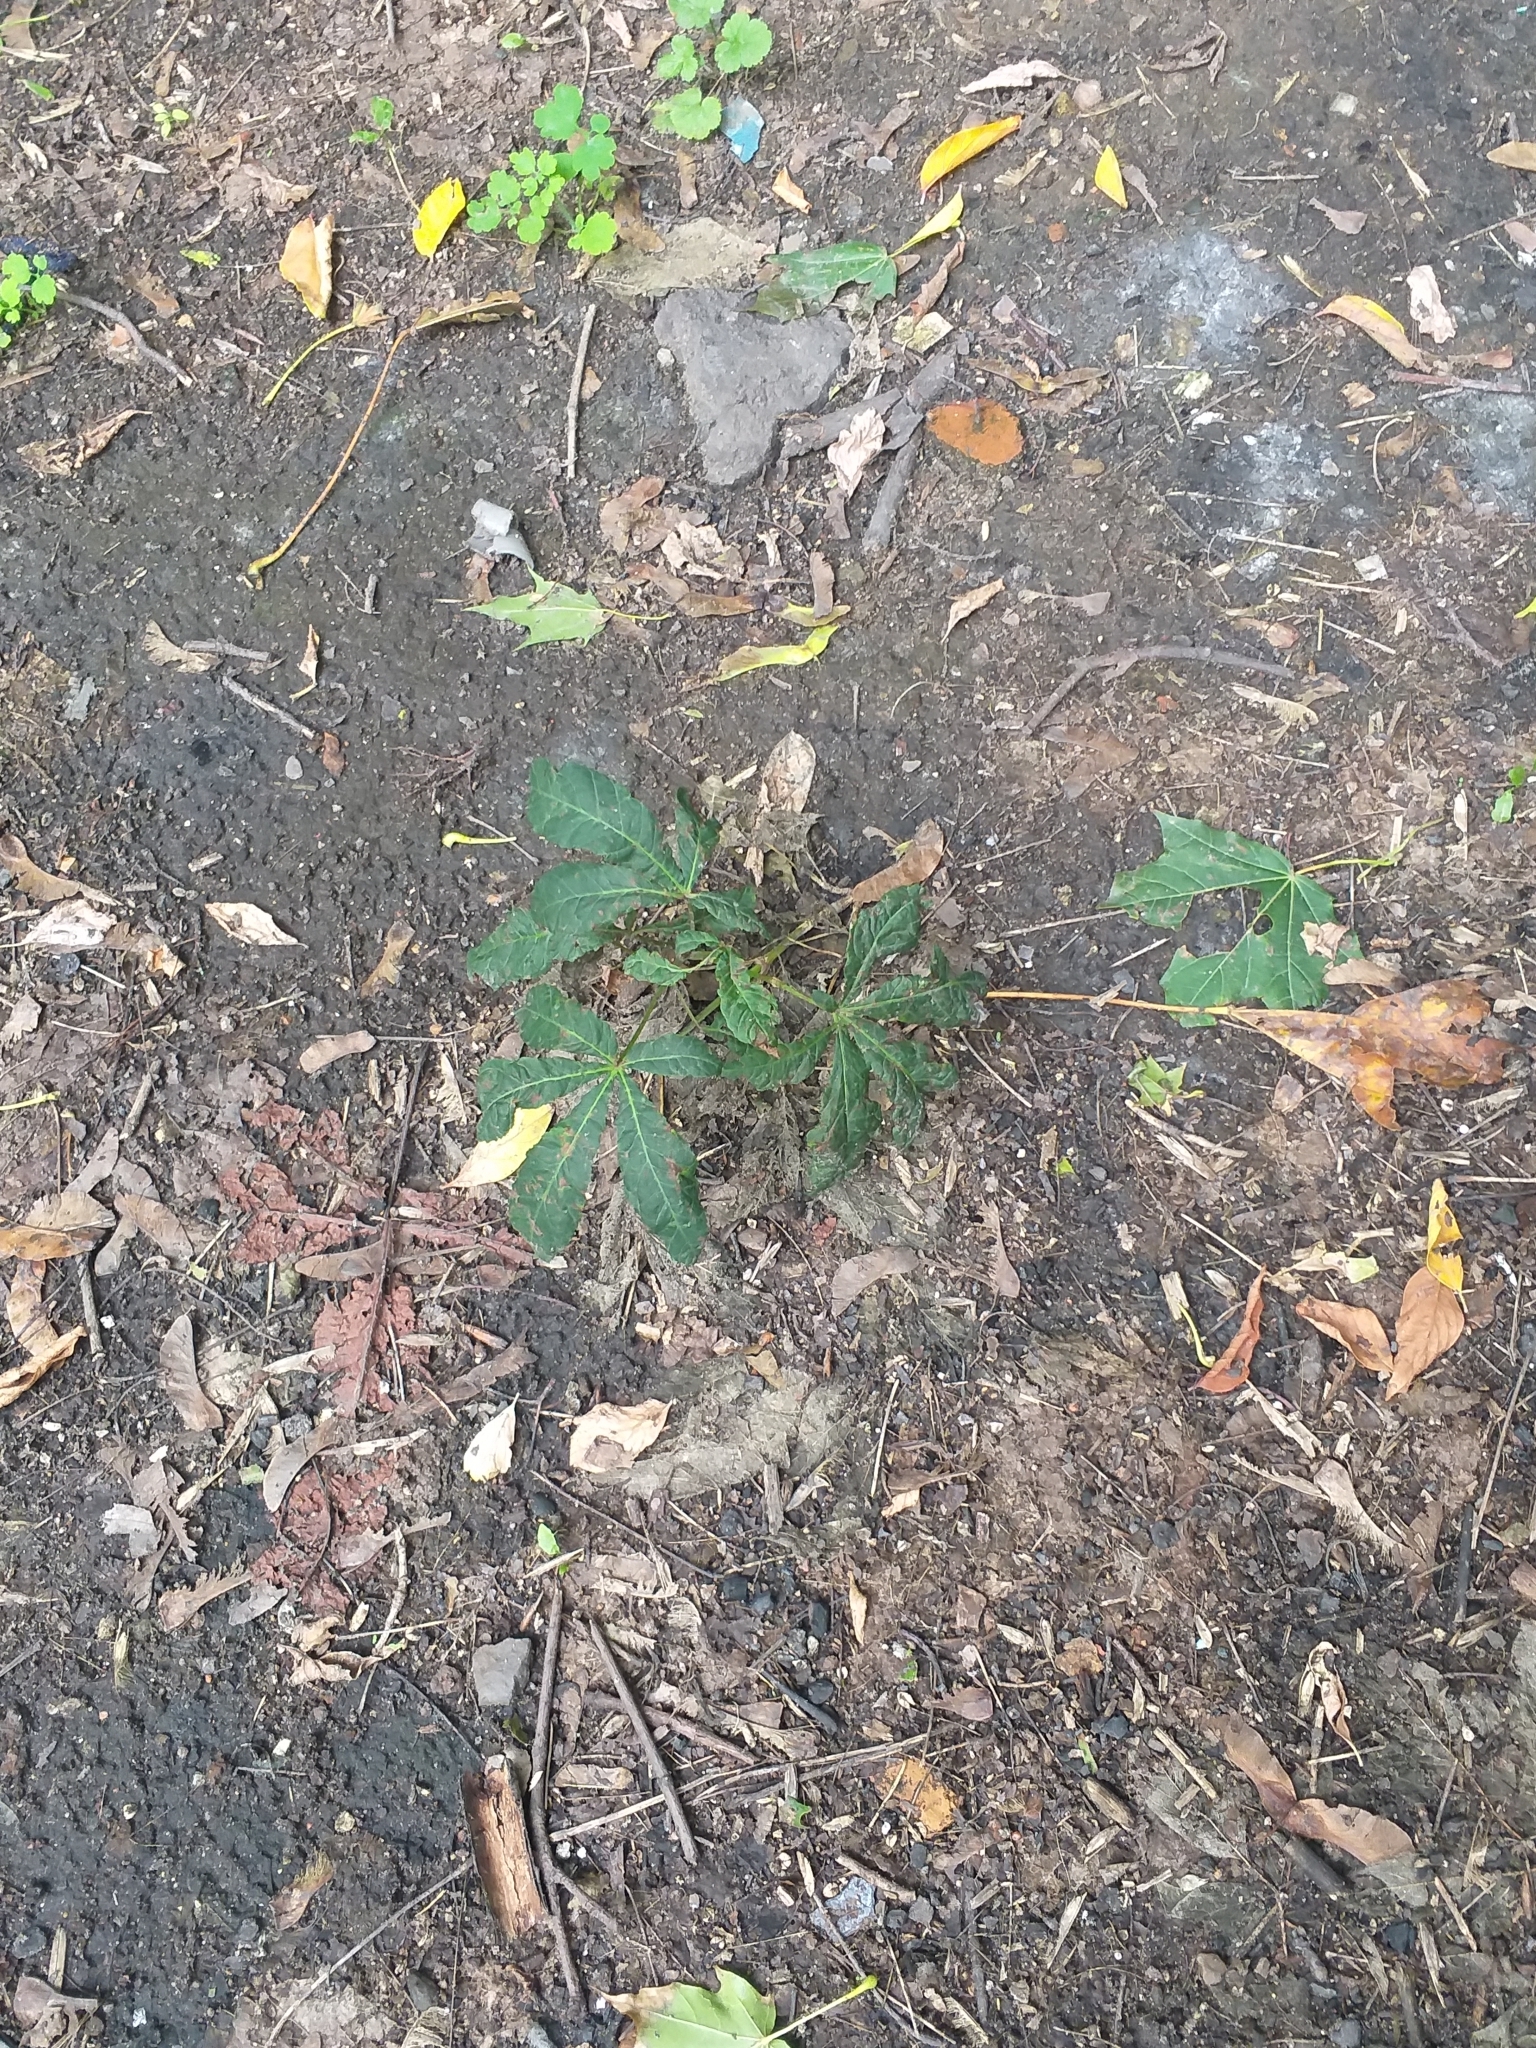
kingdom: Plantae
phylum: Tracheophyta
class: Magnoliopsida
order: Sapindales
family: Sapindaceae
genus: Aesculus
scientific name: Aesculus hippocastanum
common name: Horse-chestnut
